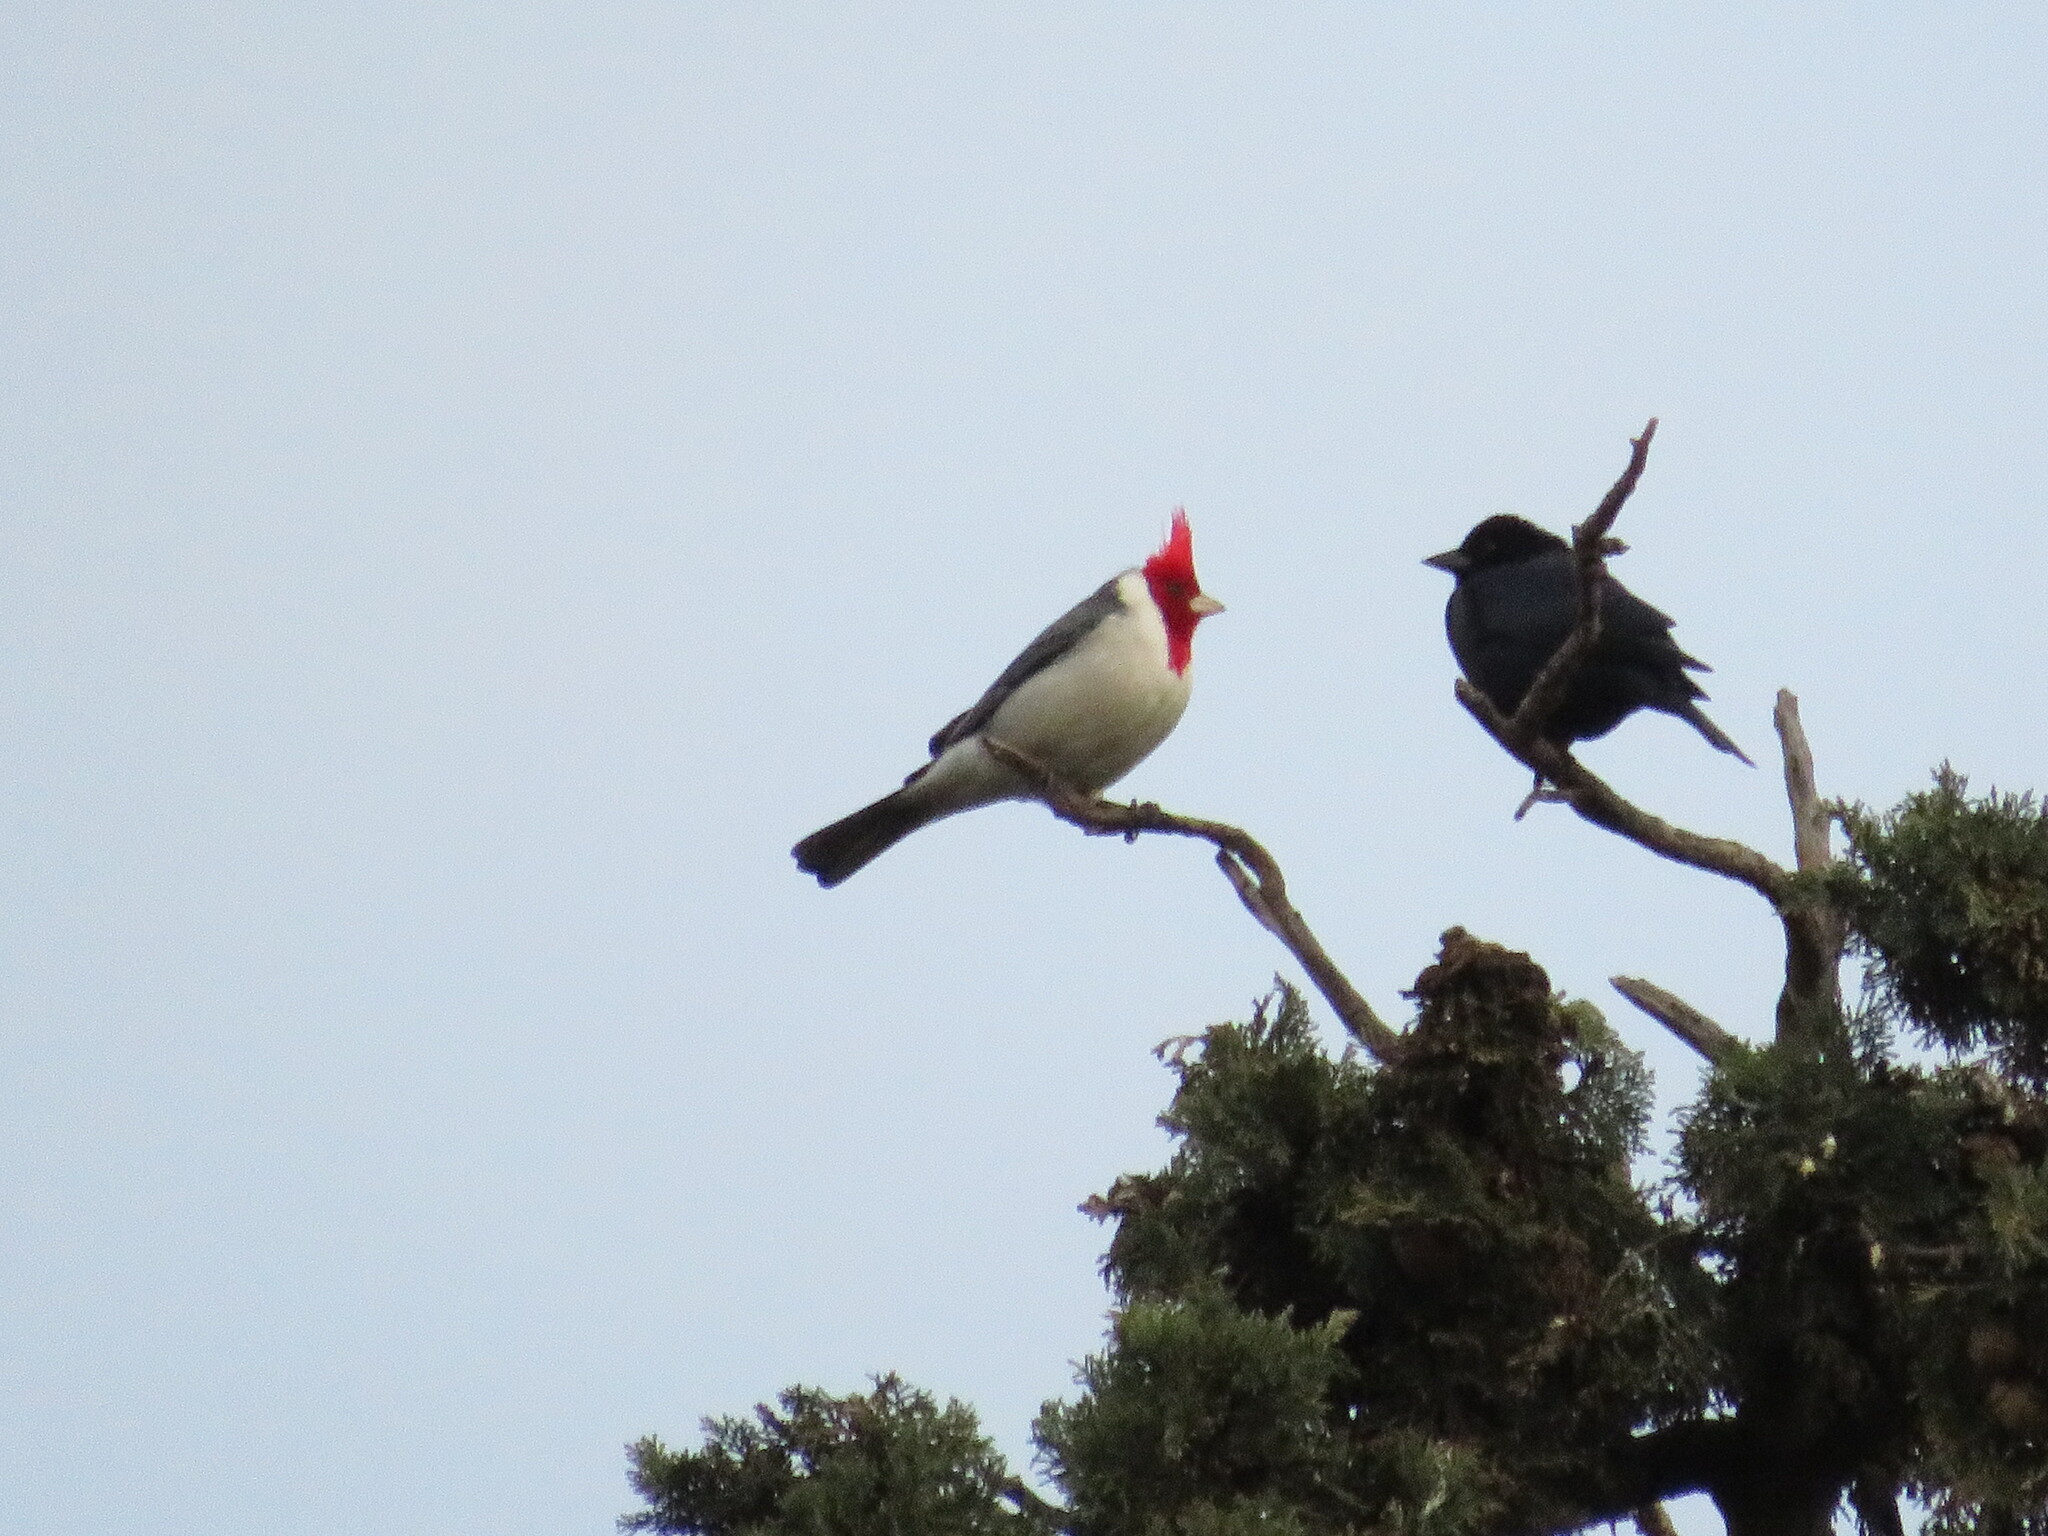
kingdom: Animalia
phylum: Chordata
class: Aves
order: Passeriformes
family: Thraupidae
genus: Paroaria
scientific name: Paroaria coronata
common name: Red-crested cardinal
